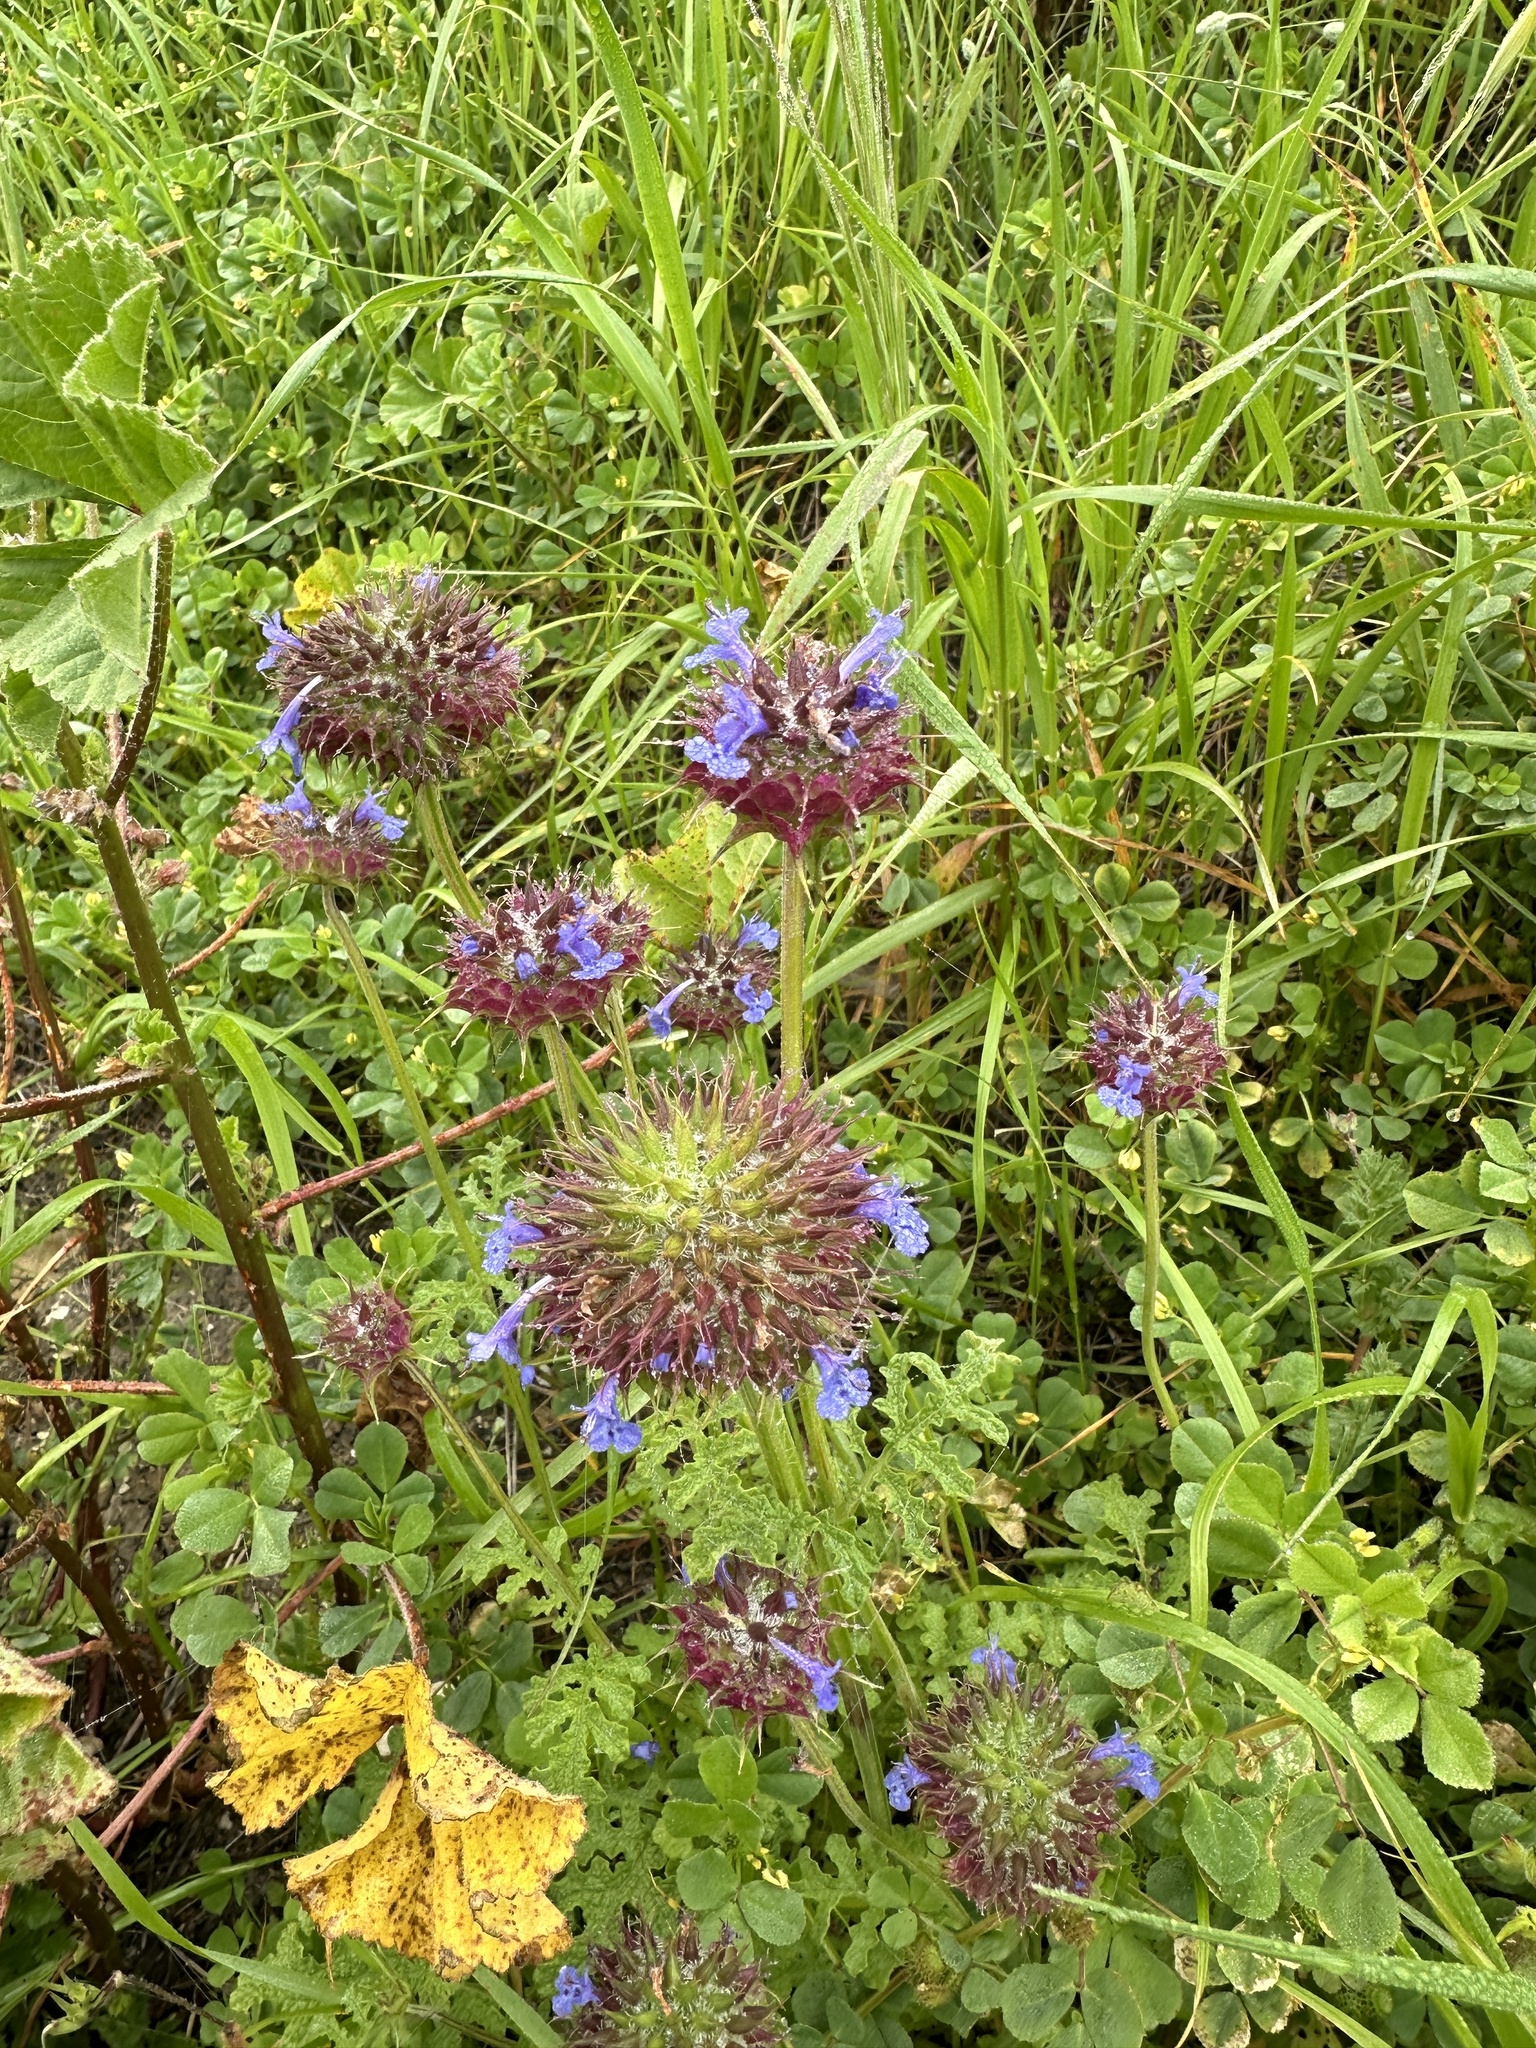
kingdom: Plantae
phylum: Tracheophyta
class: Magnoliopsida
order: Lamiales
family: Lamiaceae
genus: Salvia
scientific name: Salvia columbariae
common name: Chia
